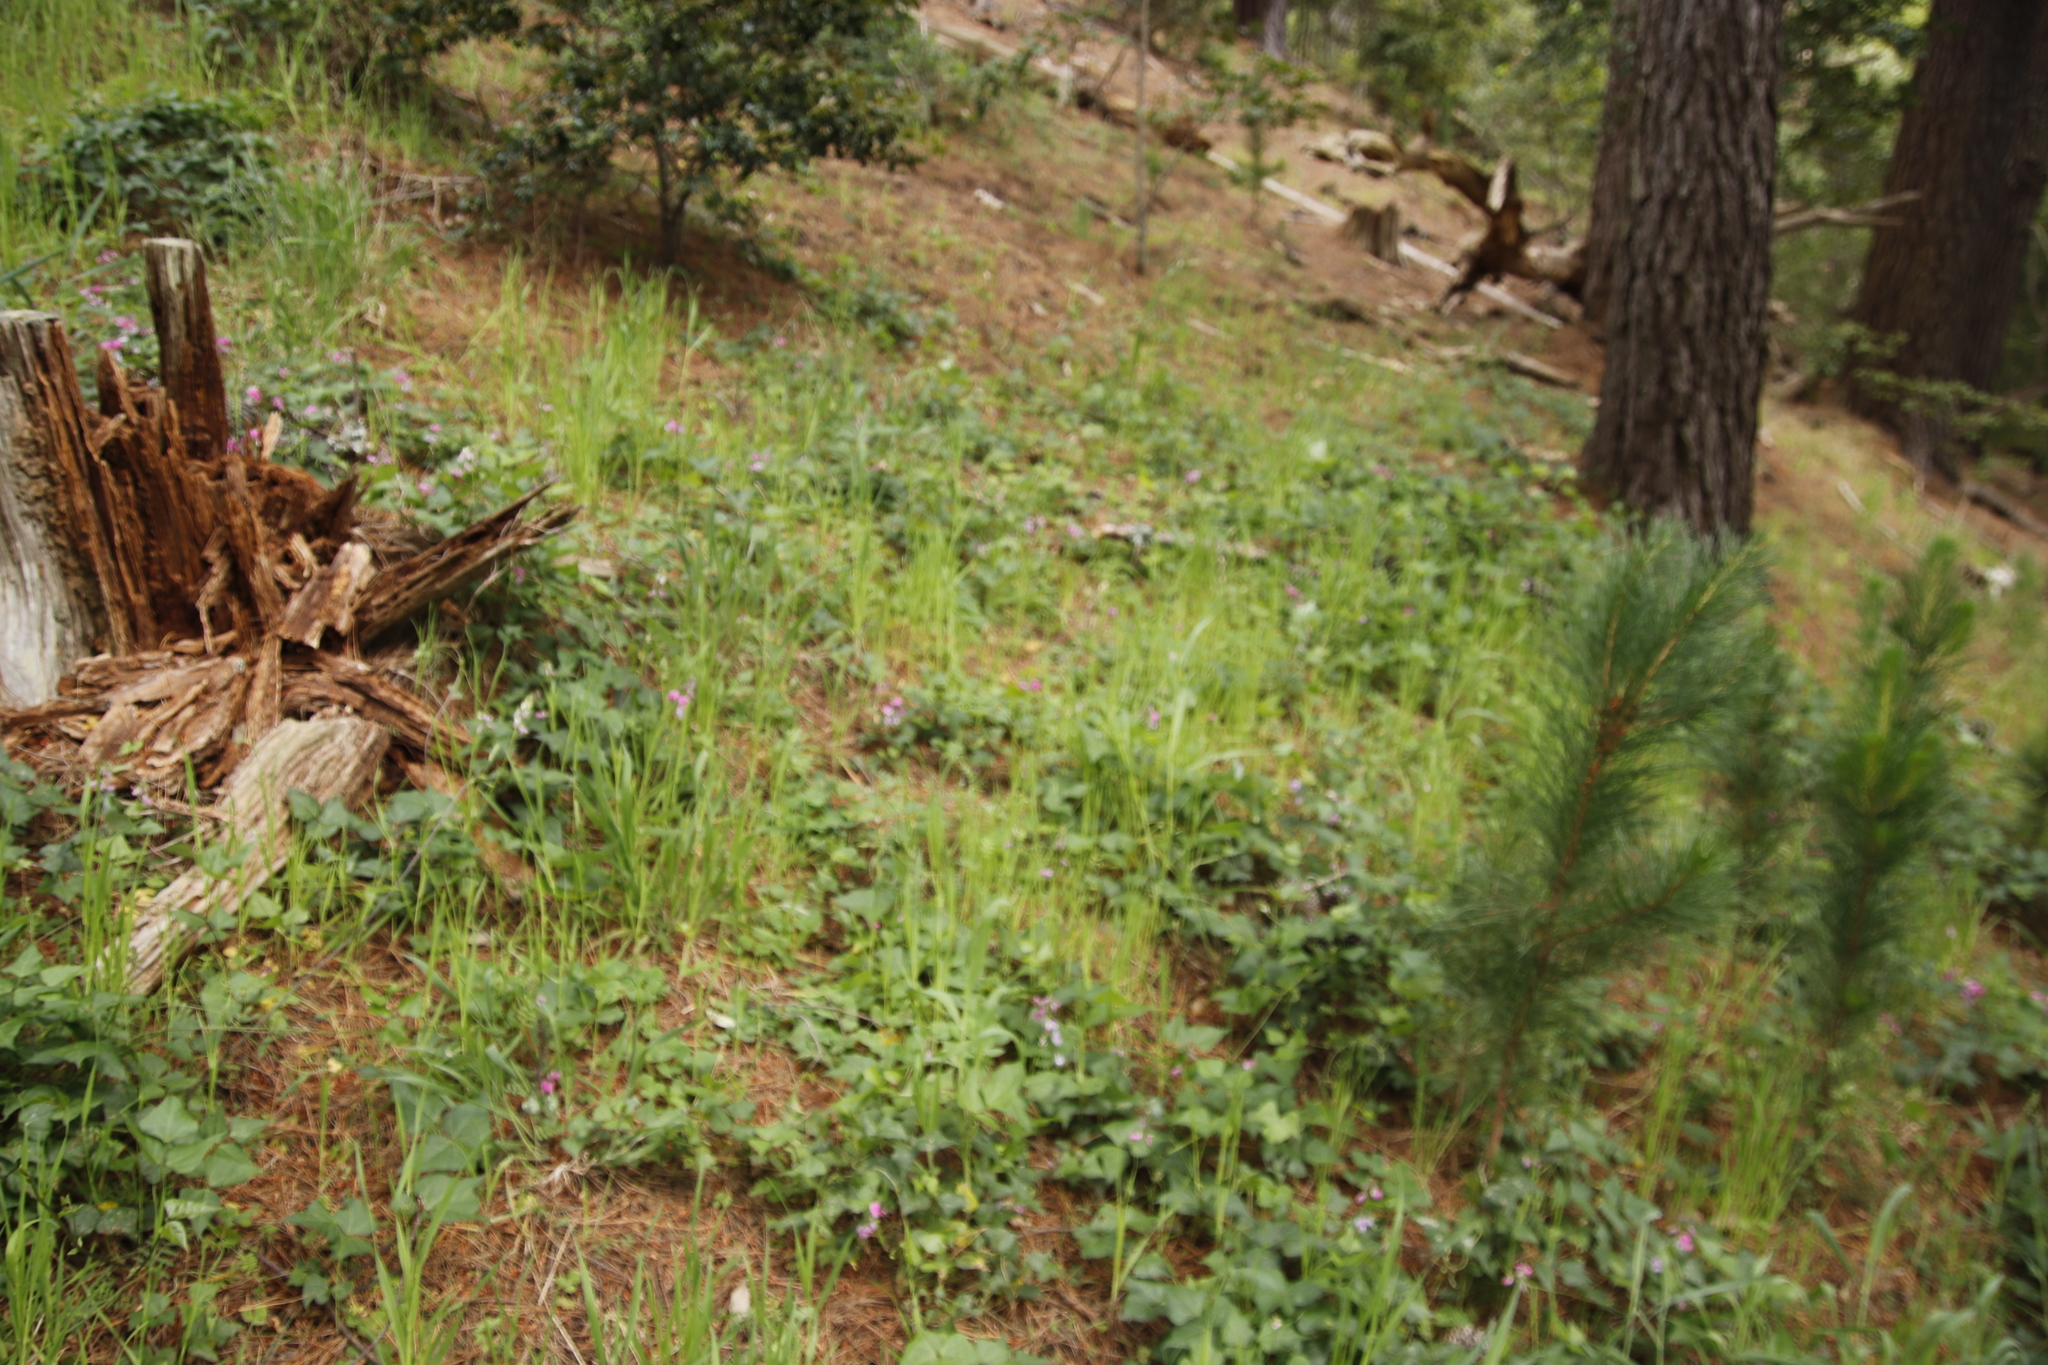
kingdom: Plantae
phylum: Tracheophyta
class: Magnoliopsida
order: Fabales
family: Fabaceae
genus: Dipogon
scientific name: Dipogon lignosus
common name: Okie bean
